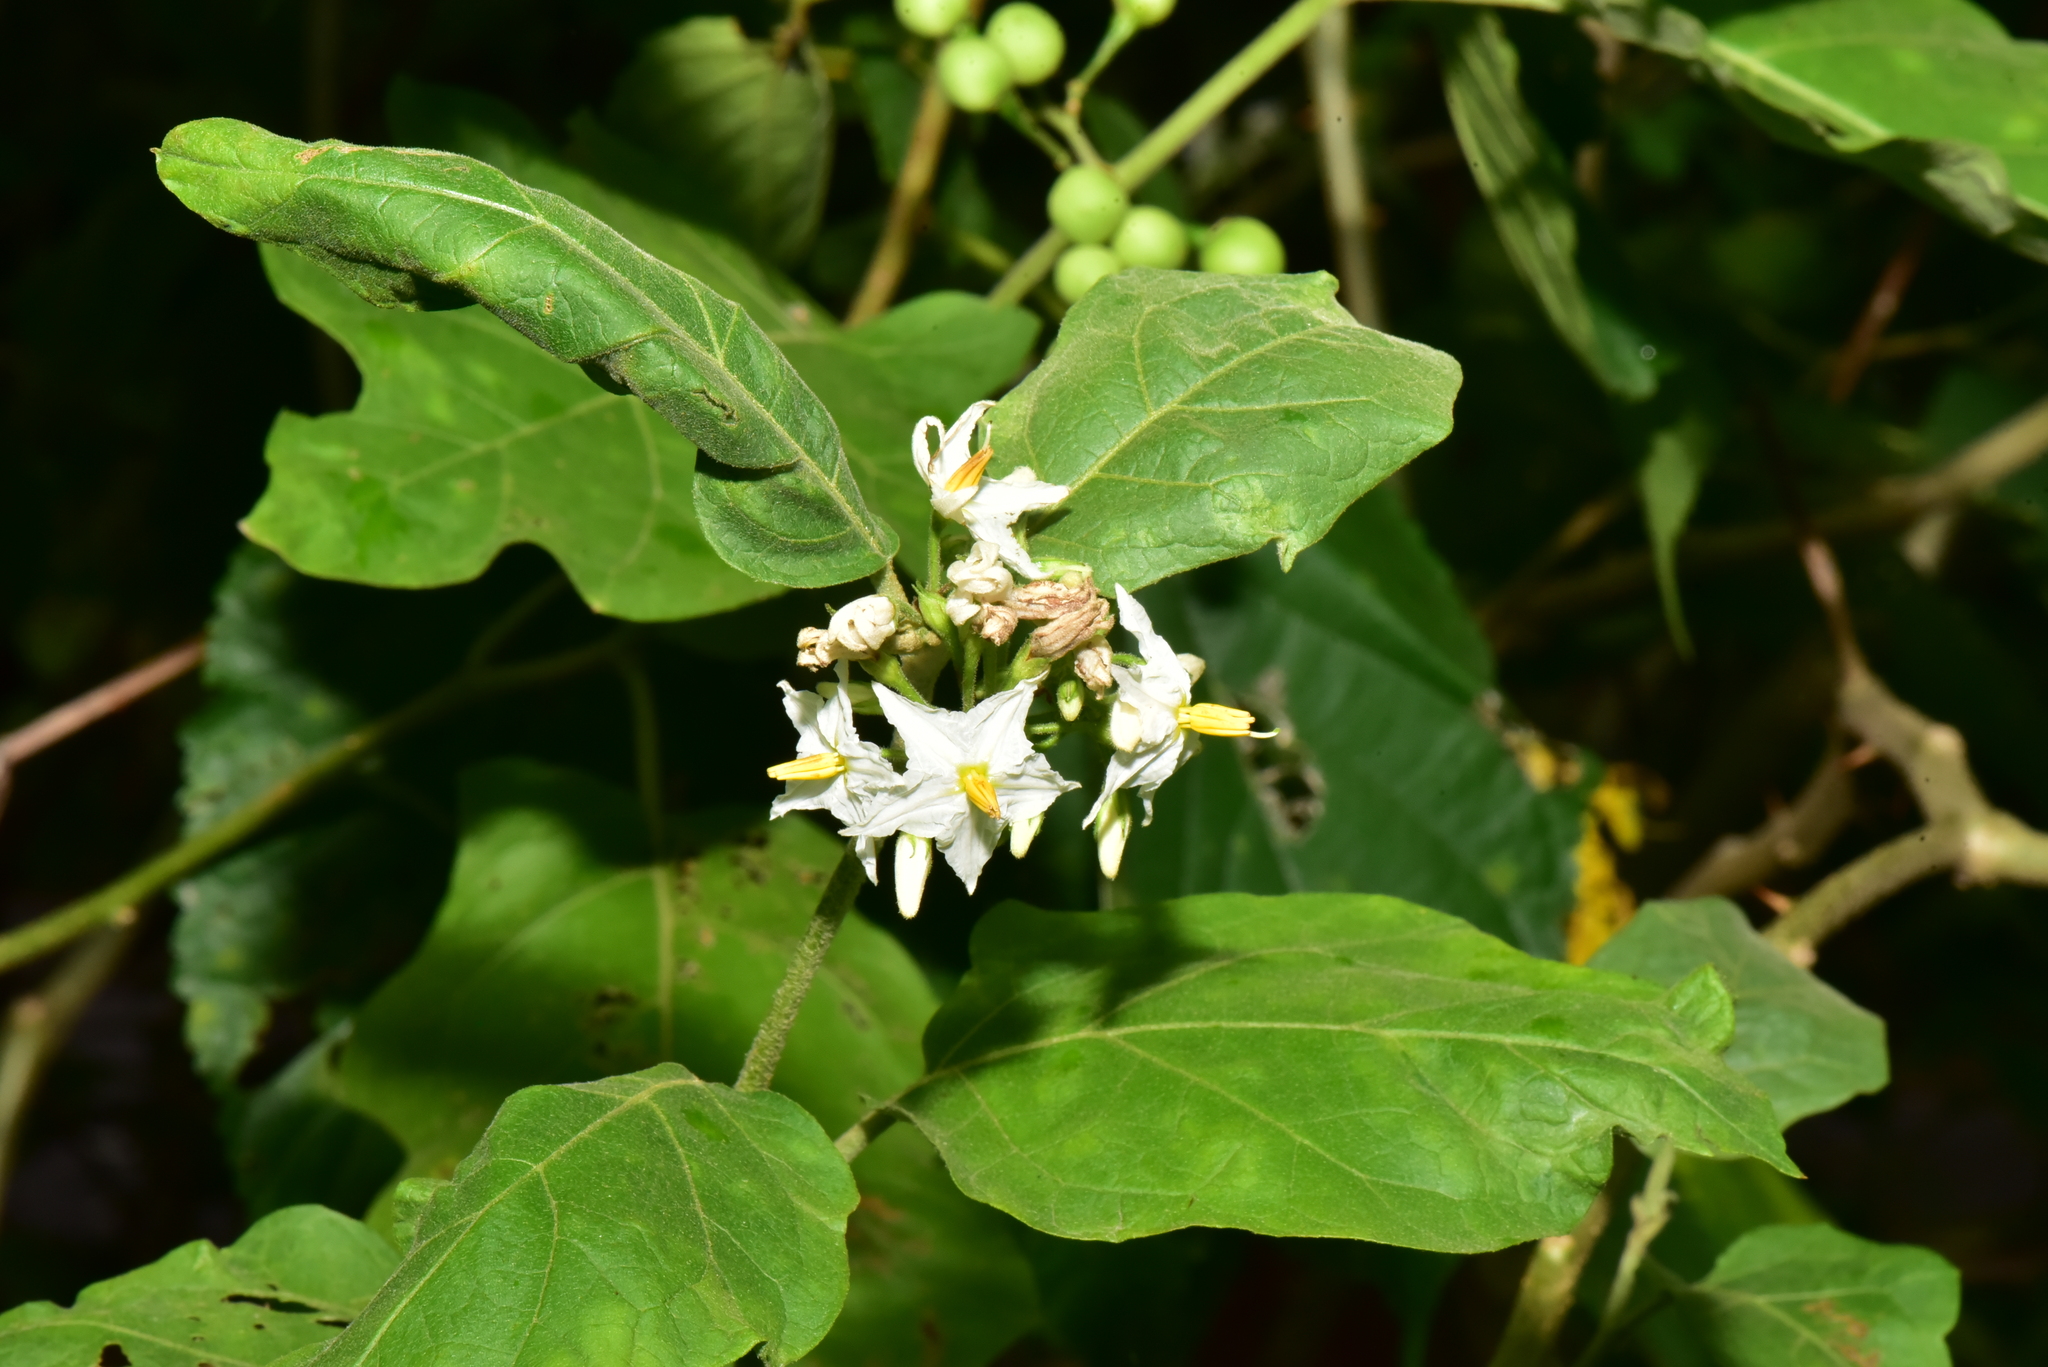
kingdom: Plantae
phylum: Tracheophyta
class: Magnoliopsida
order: Solanales
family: Solanaceae
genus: Solanum
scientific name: Solanum torvum
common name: Turkey berry
